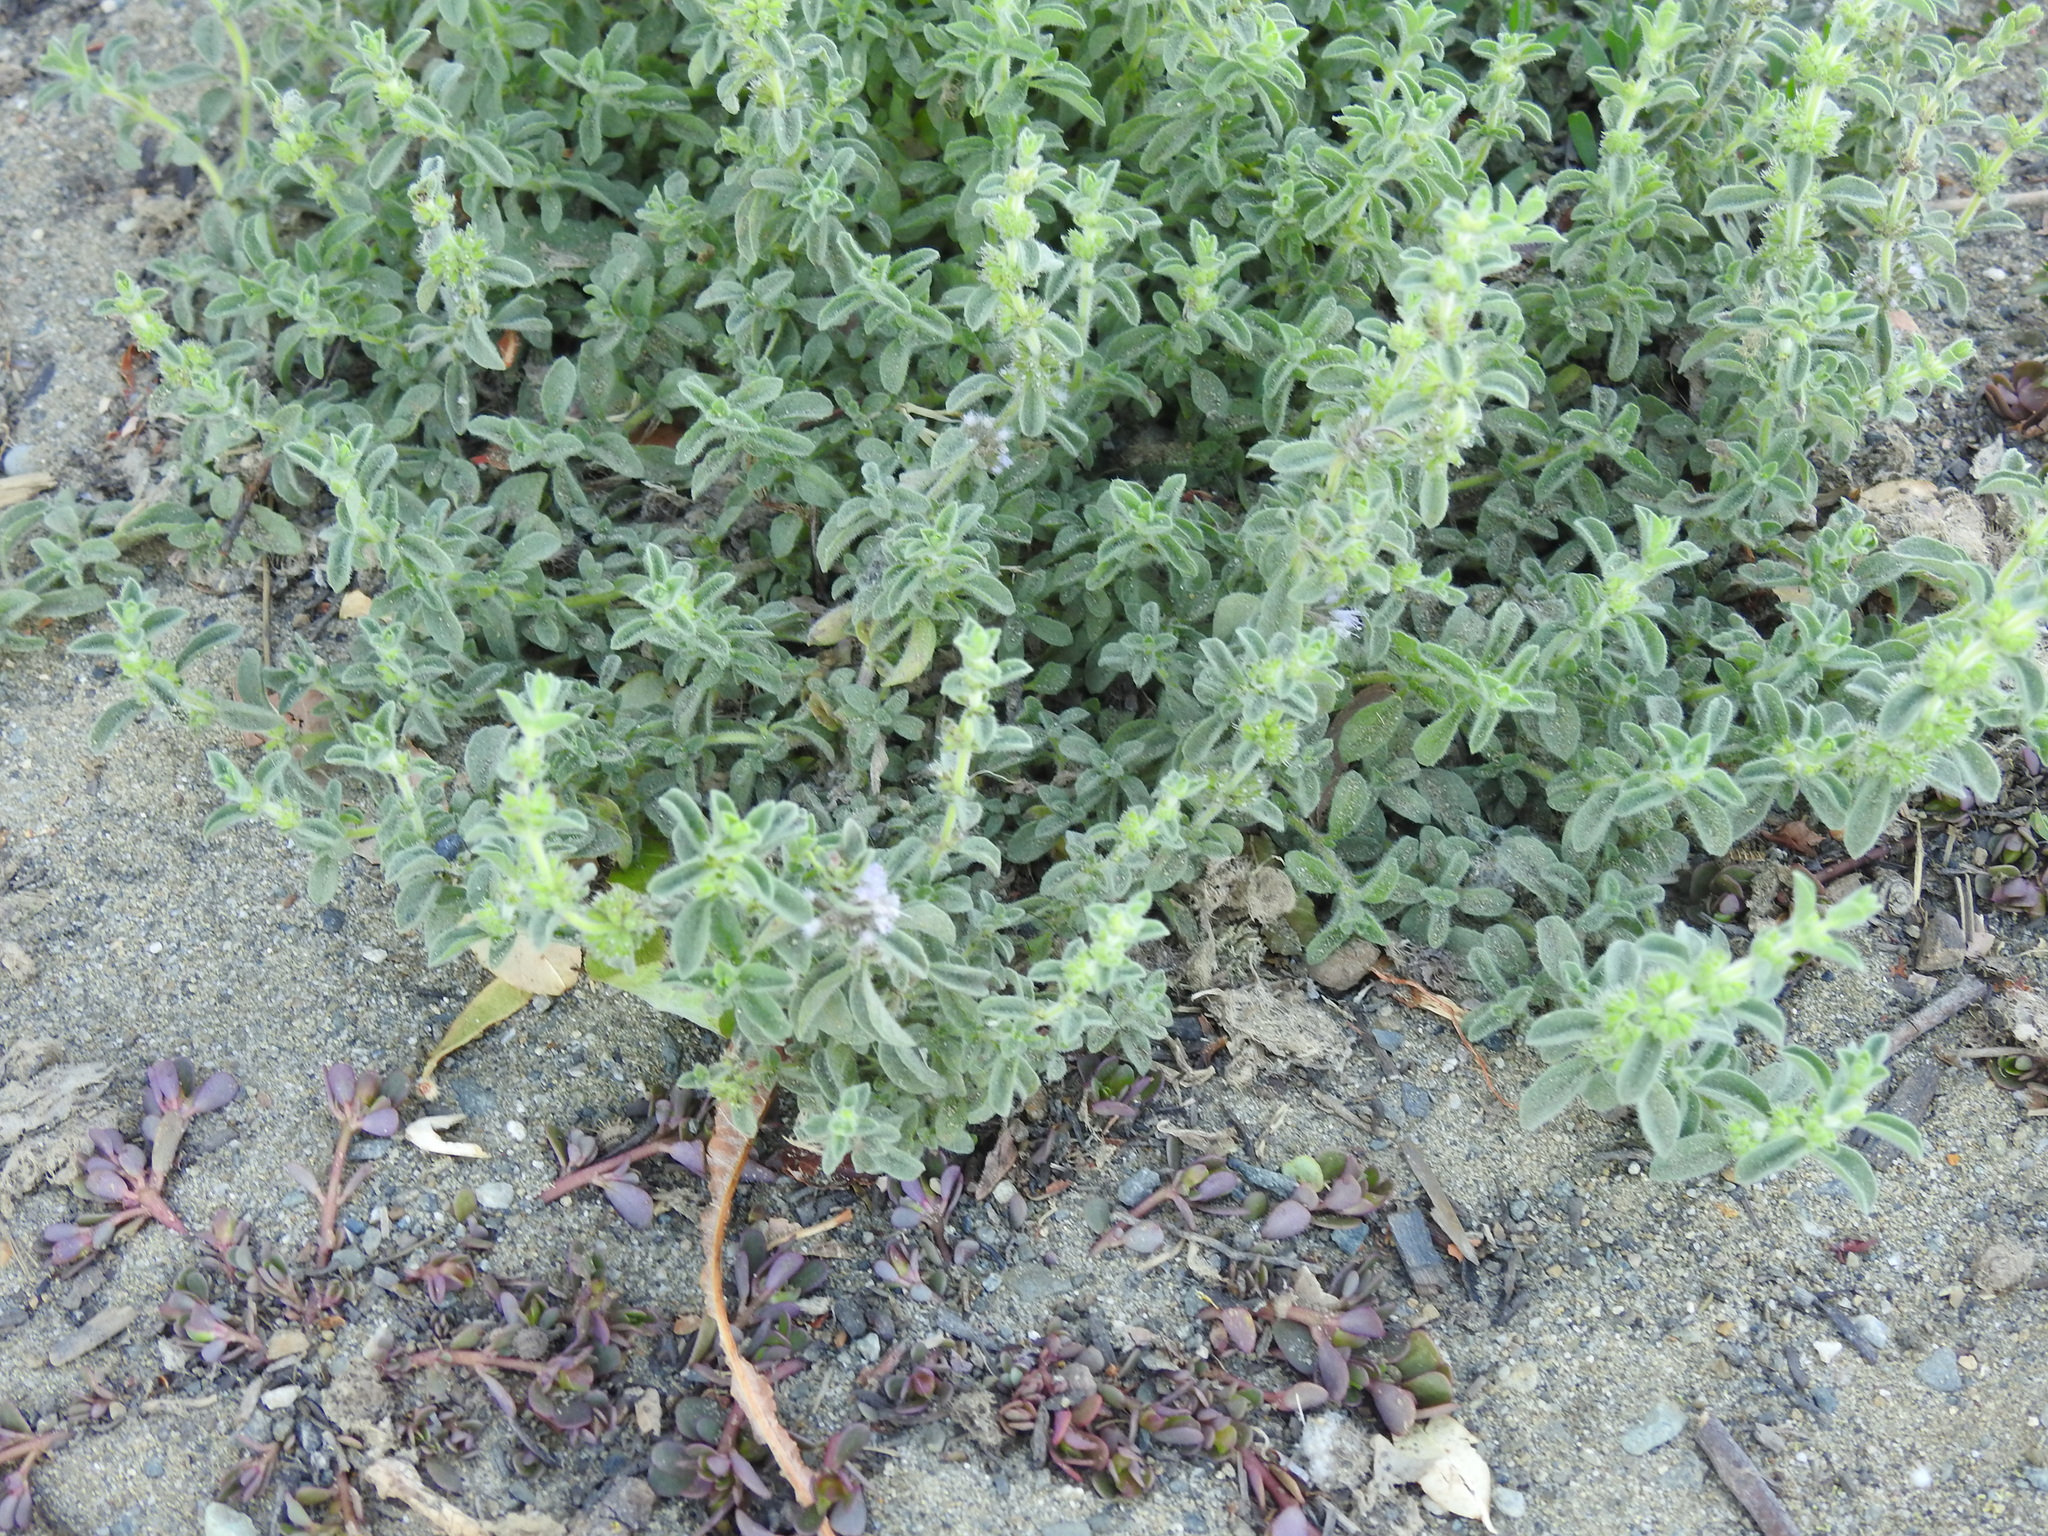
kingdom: Plantae
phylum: Tracheophyta
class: Magnoliopsida
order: Lamiales
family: Lamiaceae
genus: Mentha
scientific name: Mentha pulegium
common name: Pennyroyal
